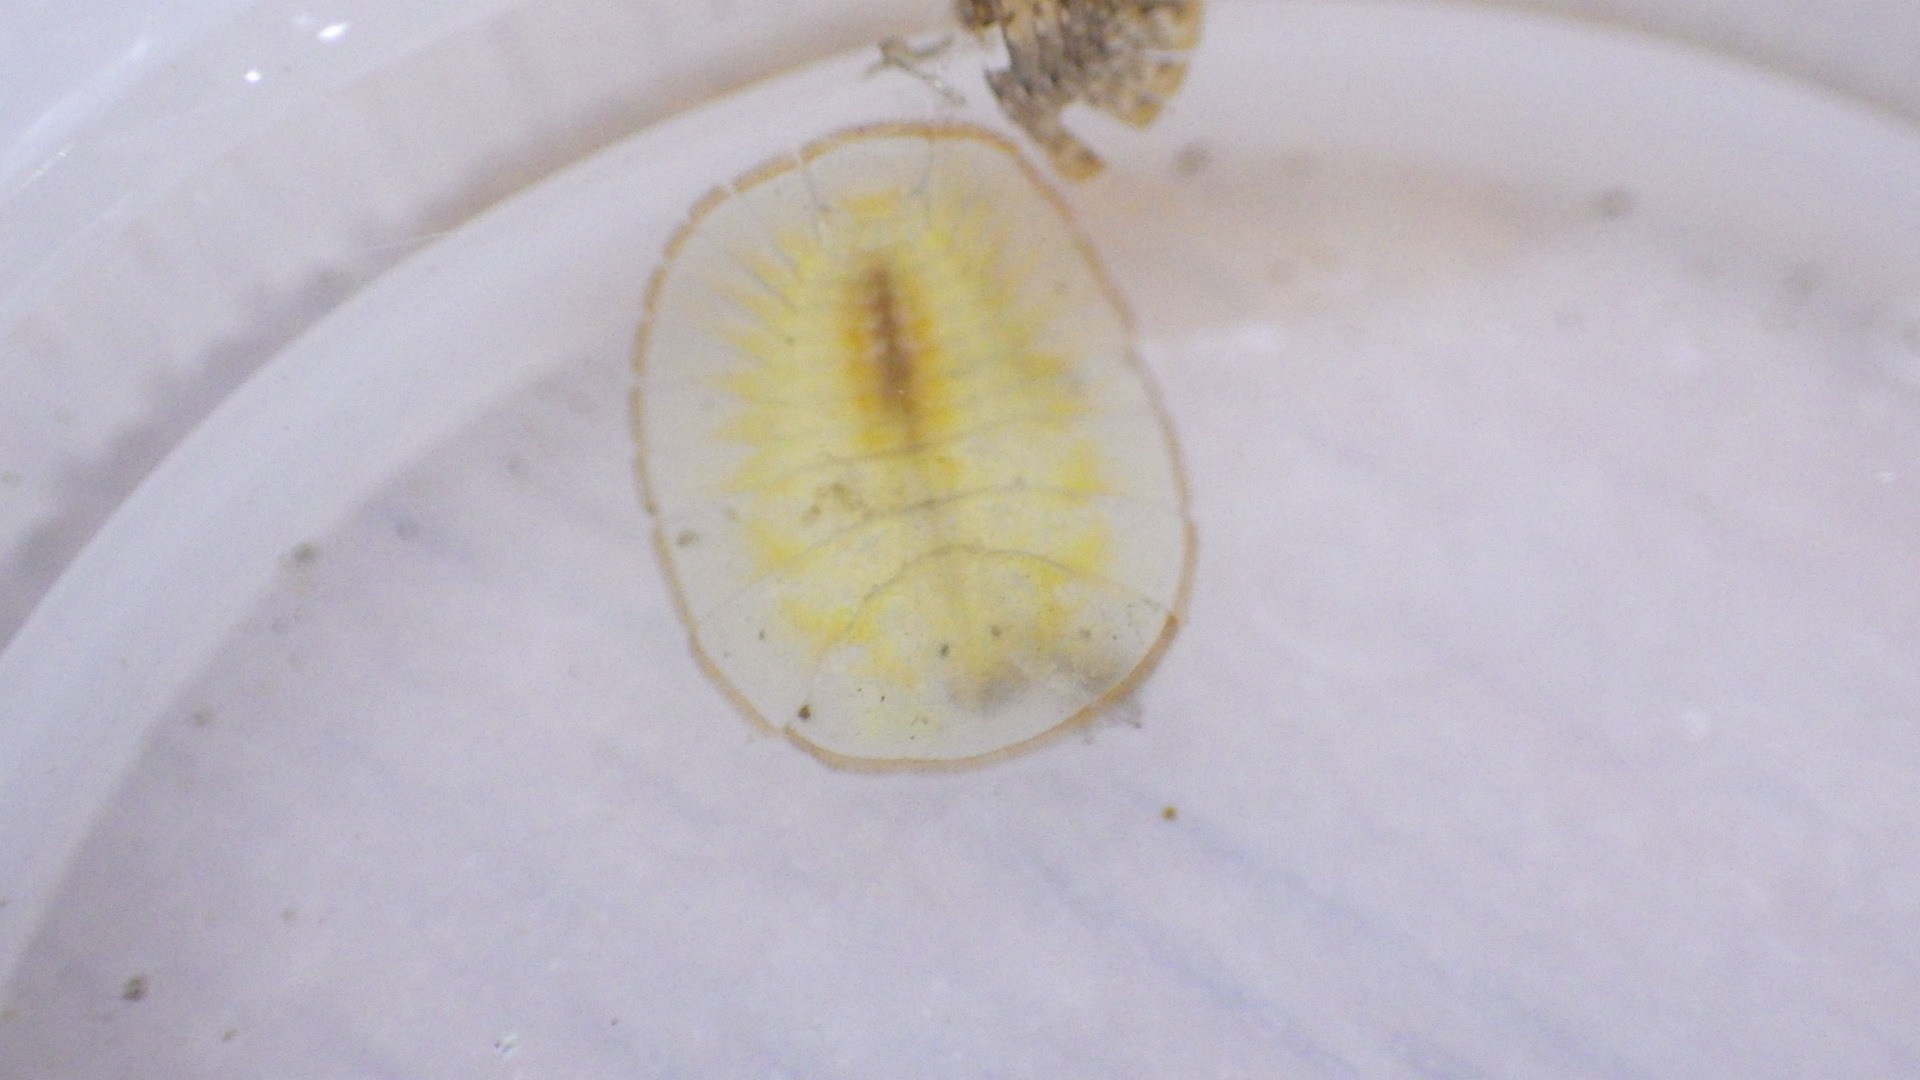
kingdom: Animalia
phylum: Arthropoda
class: Insecta
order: Coleoptera
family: Psephenidae
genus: Psephenus
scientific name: Psephenus herricki
